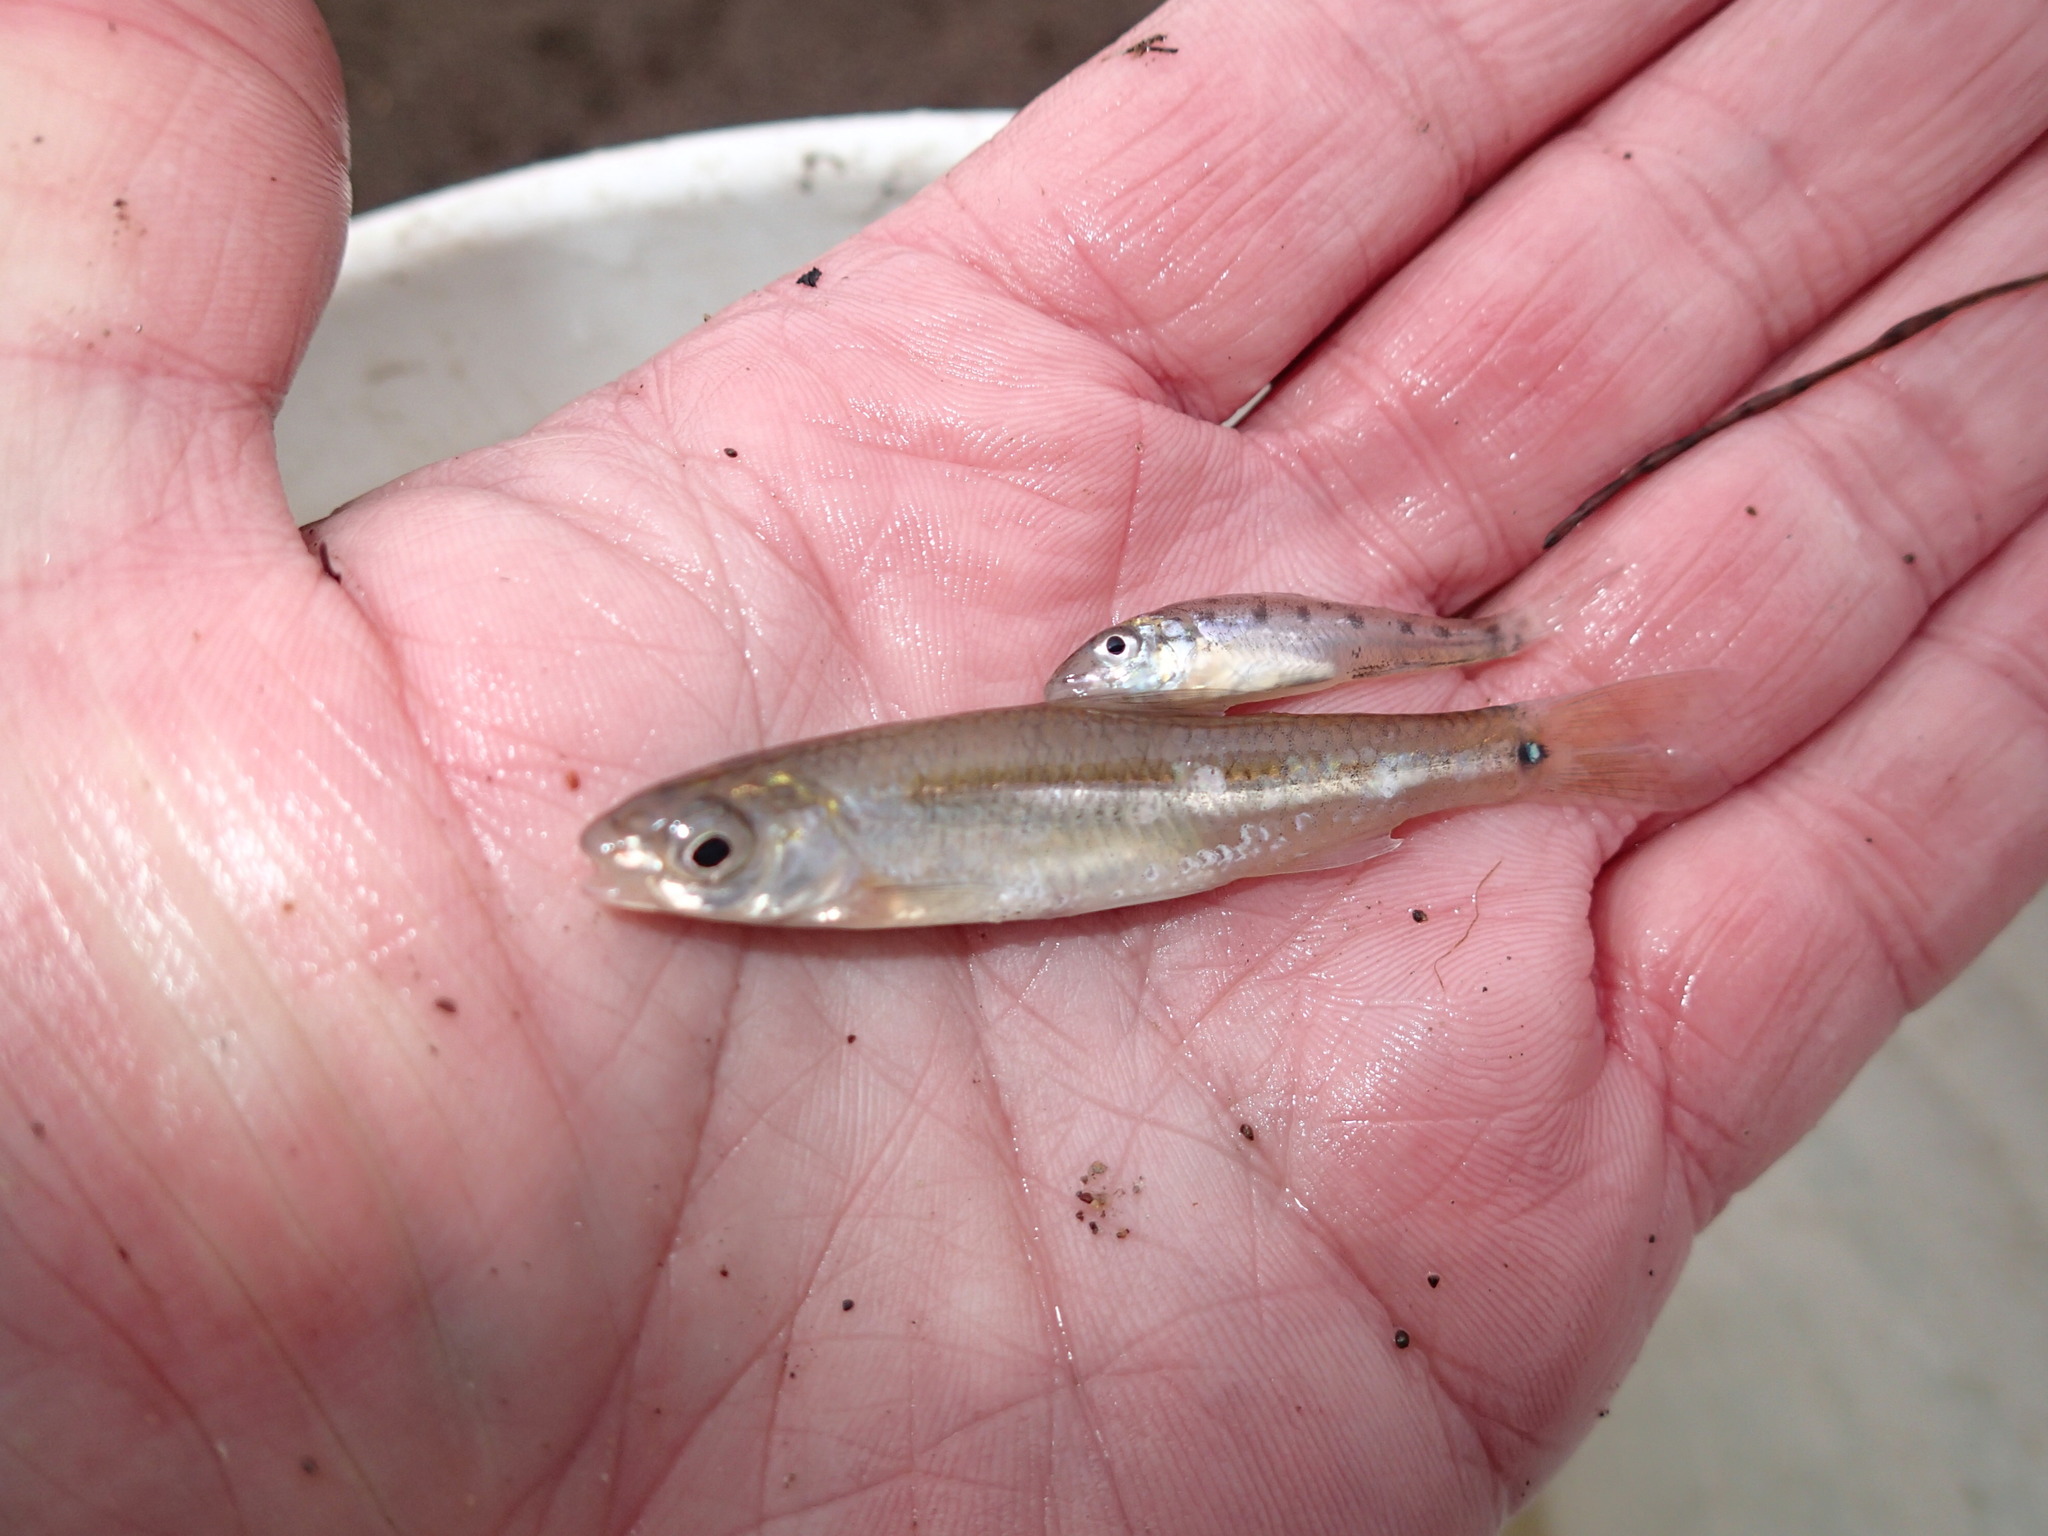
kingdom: Animalia
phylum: Chordata
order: Percopsiformes
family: Percopsidae
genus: Percopsis
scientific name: Percopsis omiscomaycus
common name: Trout-perch
